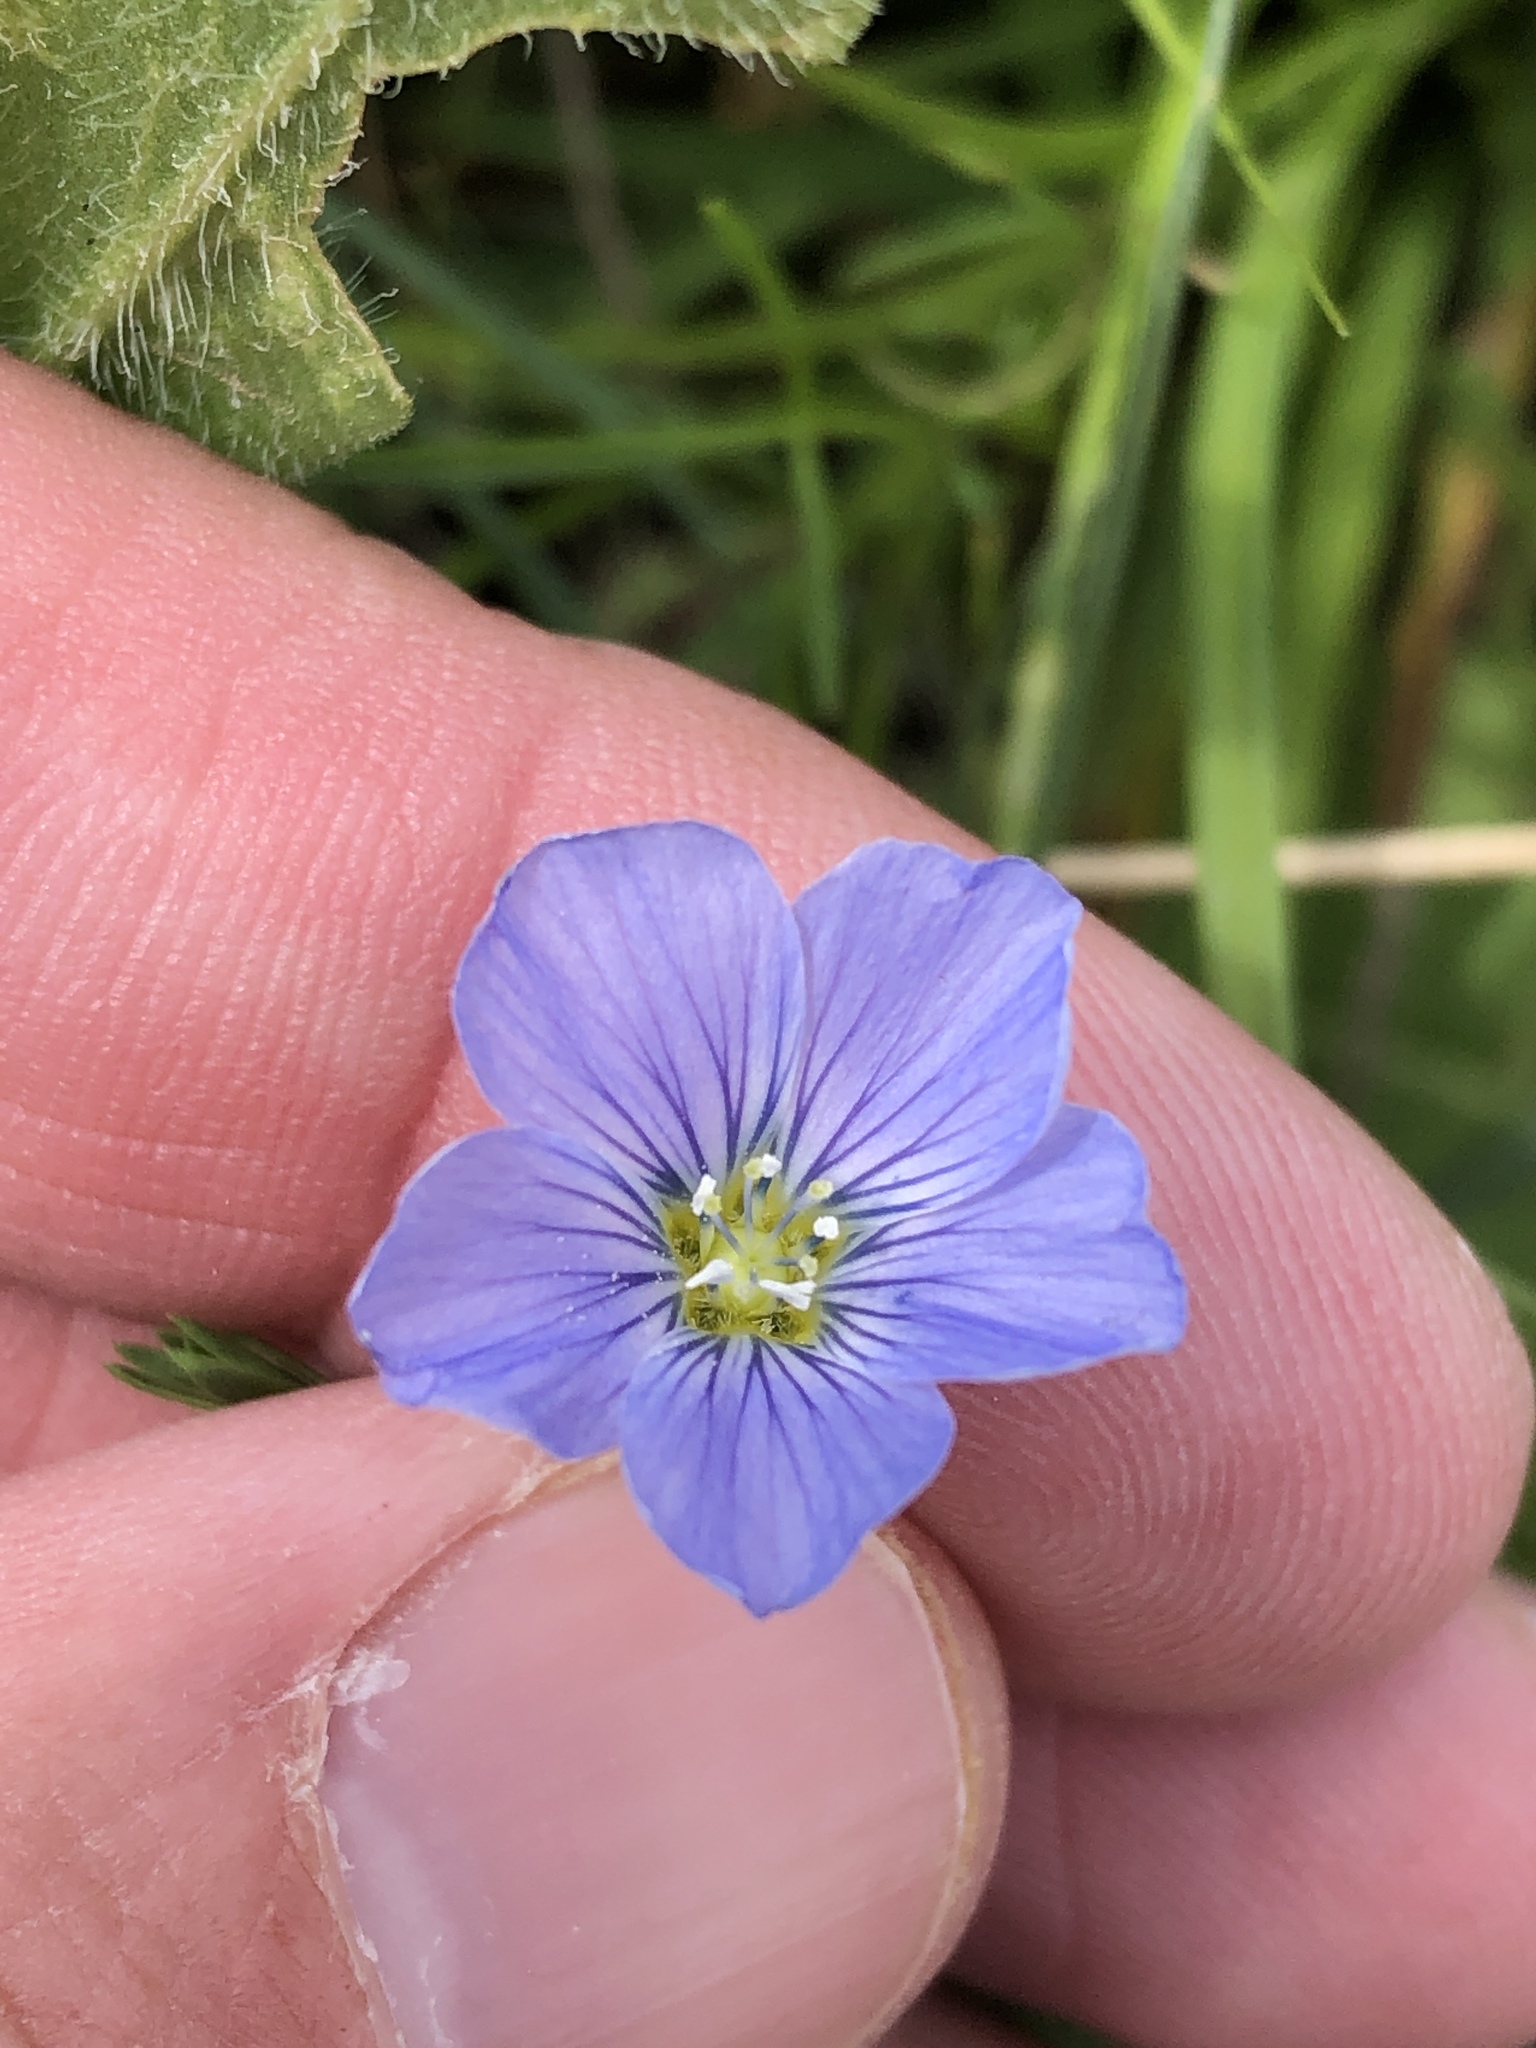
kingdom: Plantae
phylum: Tracheophyta
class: Magnoliopsida
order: Malpighiales
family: Linaceae
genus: Linum
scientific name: Linum pratense
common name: Norton's flax
